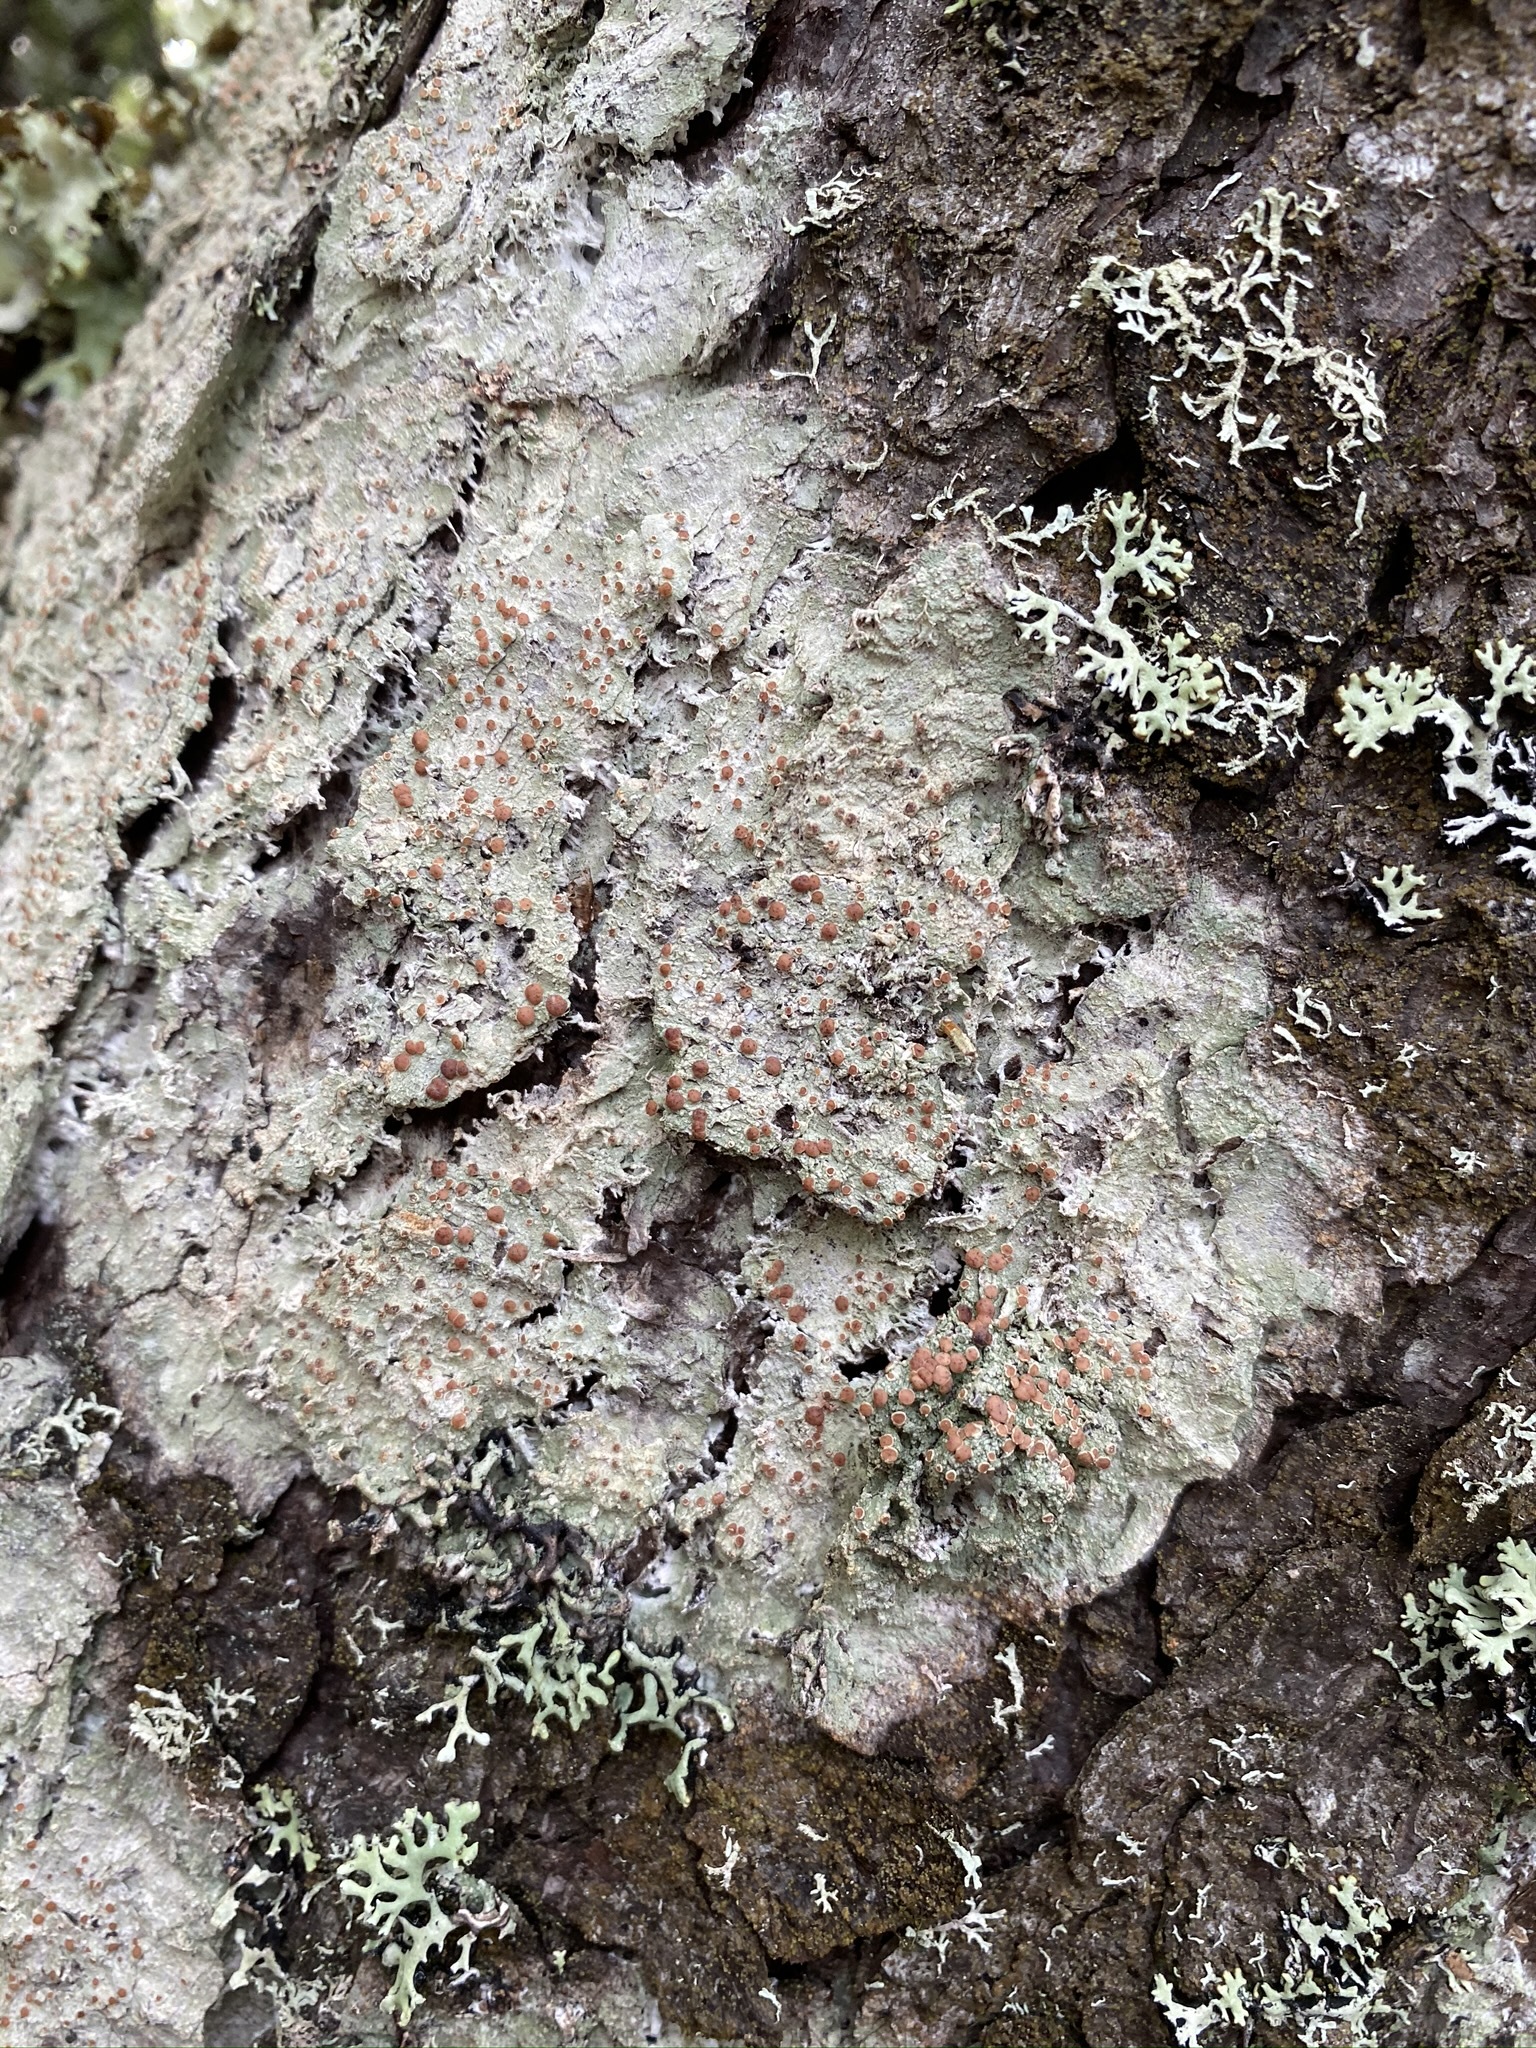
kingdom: Fungi
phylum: Ascomycota
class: Lecanoromycetes
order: Lecanorales
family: Sarrameanaceae
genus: Loxospora
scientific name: Loxospora ochrophaea
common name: Eastern ragged-rim lichen
